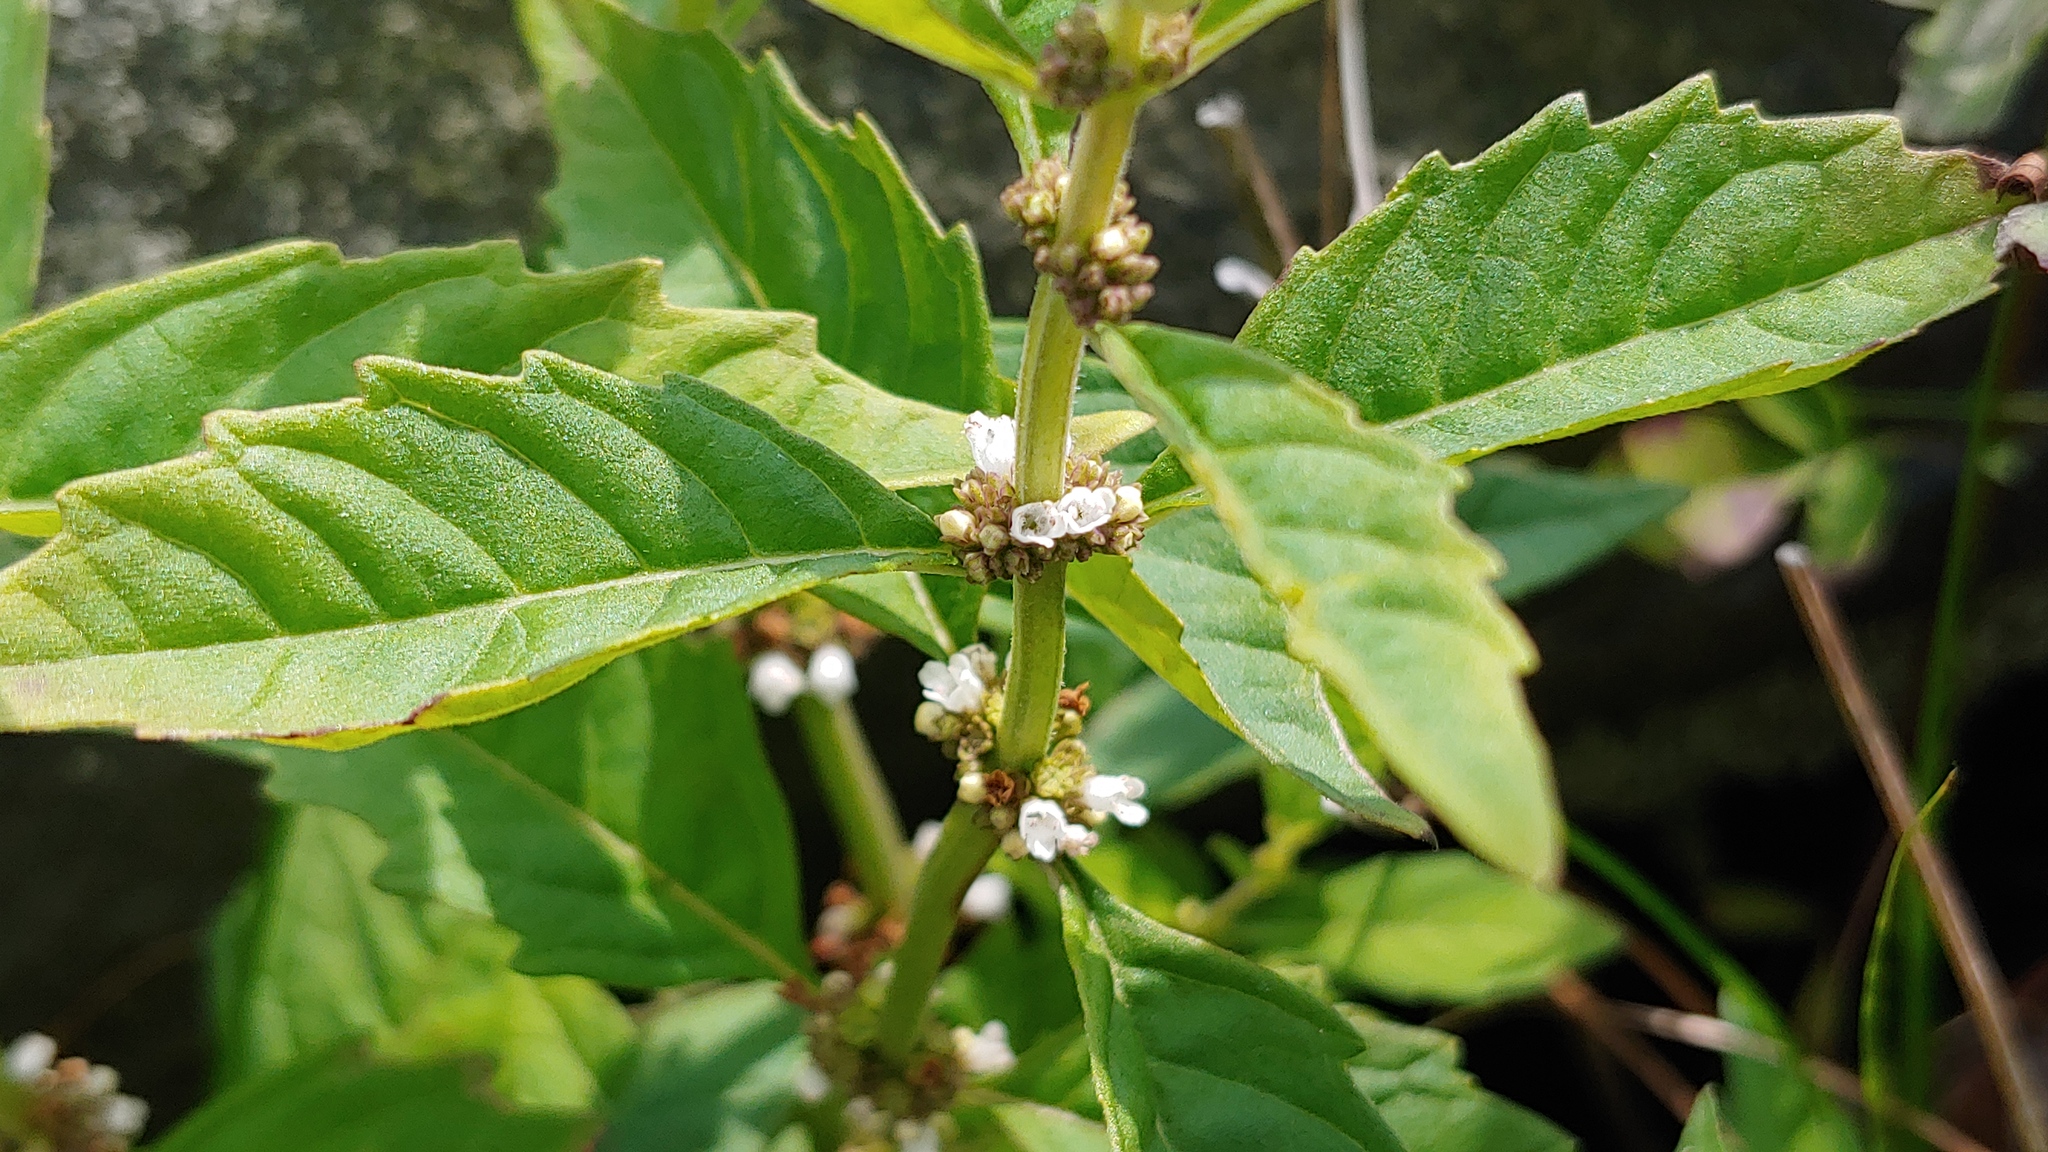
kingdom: Plantae
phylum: Tracheophyta
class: Magnoliopsida
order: Lamiales
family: Lamiaceae
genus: Lycopus
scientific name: Lycopus uniflorus
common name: Northern bugleweed
